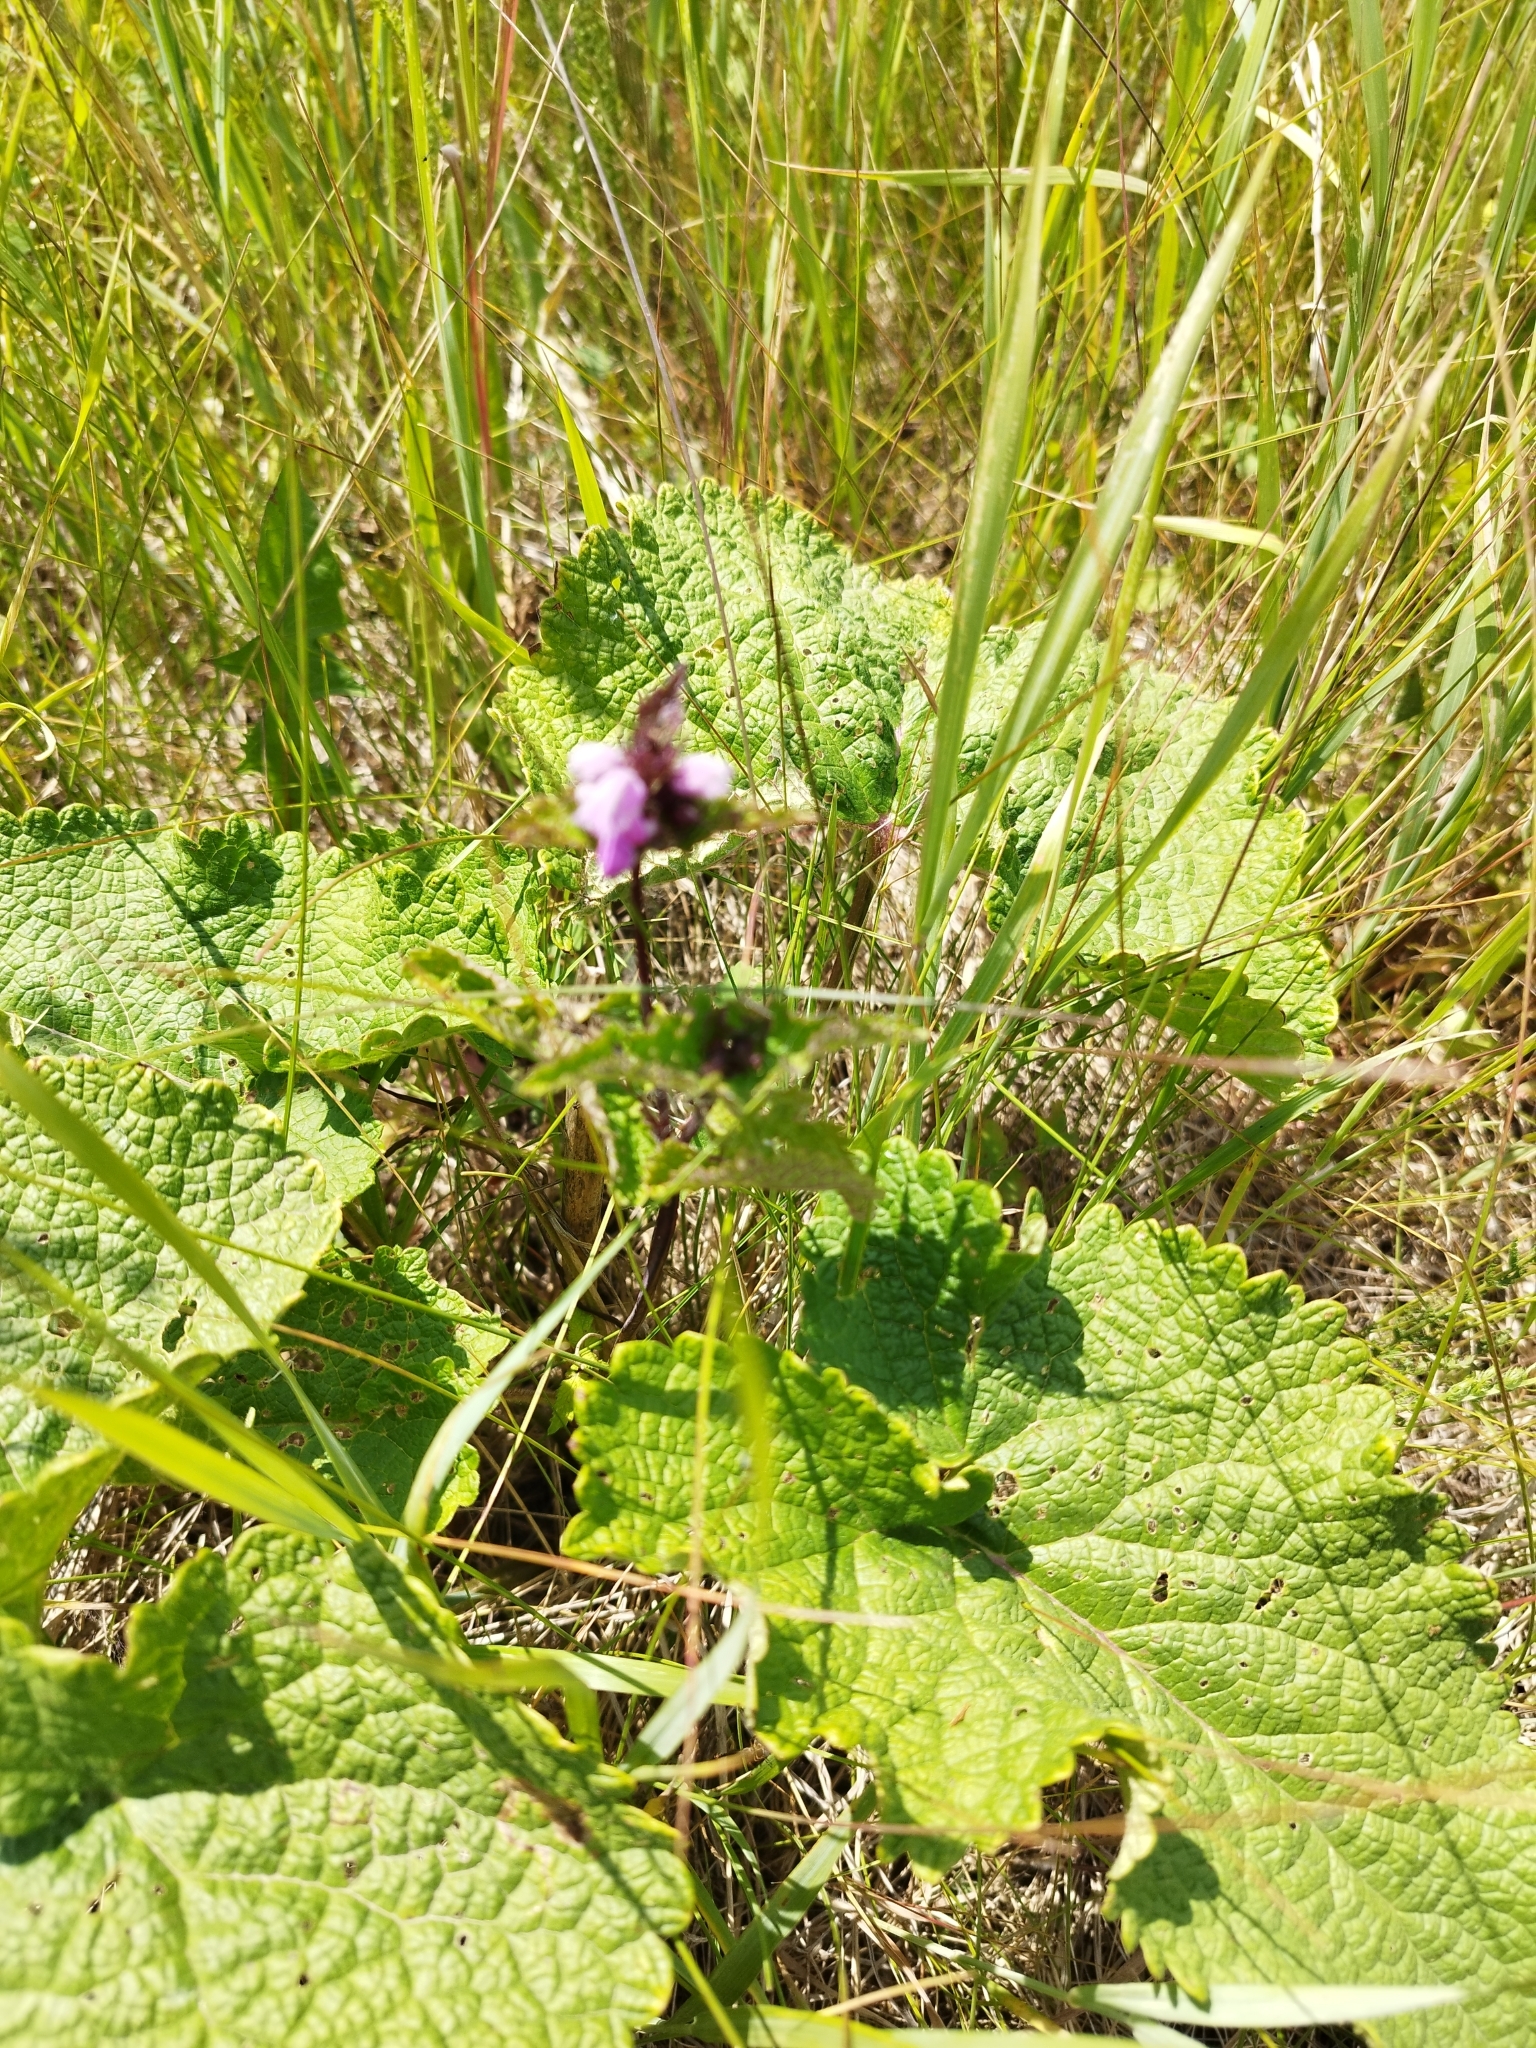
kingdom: Plantae
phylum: Tracheophyta
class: Magnoliopsida
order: Lamiales
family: Lamiaceae
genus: Phlomoides
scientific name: Phlomoides tuberosa
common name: Tuberous jerusalem sage
